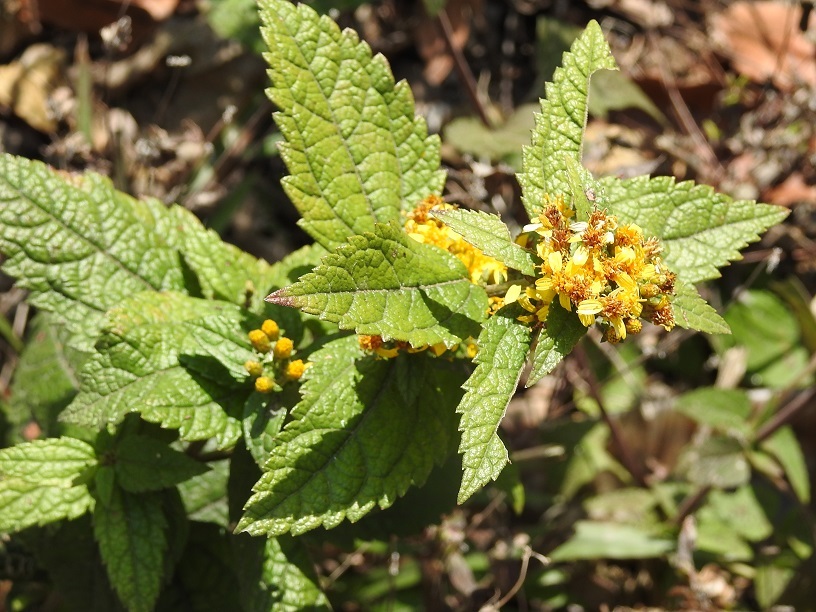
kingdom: Plantae
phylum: Tracheophyta
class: Magnoliopsida
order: Asterales
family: Asteraceae
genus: Calea
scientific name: Calea urticifolia
